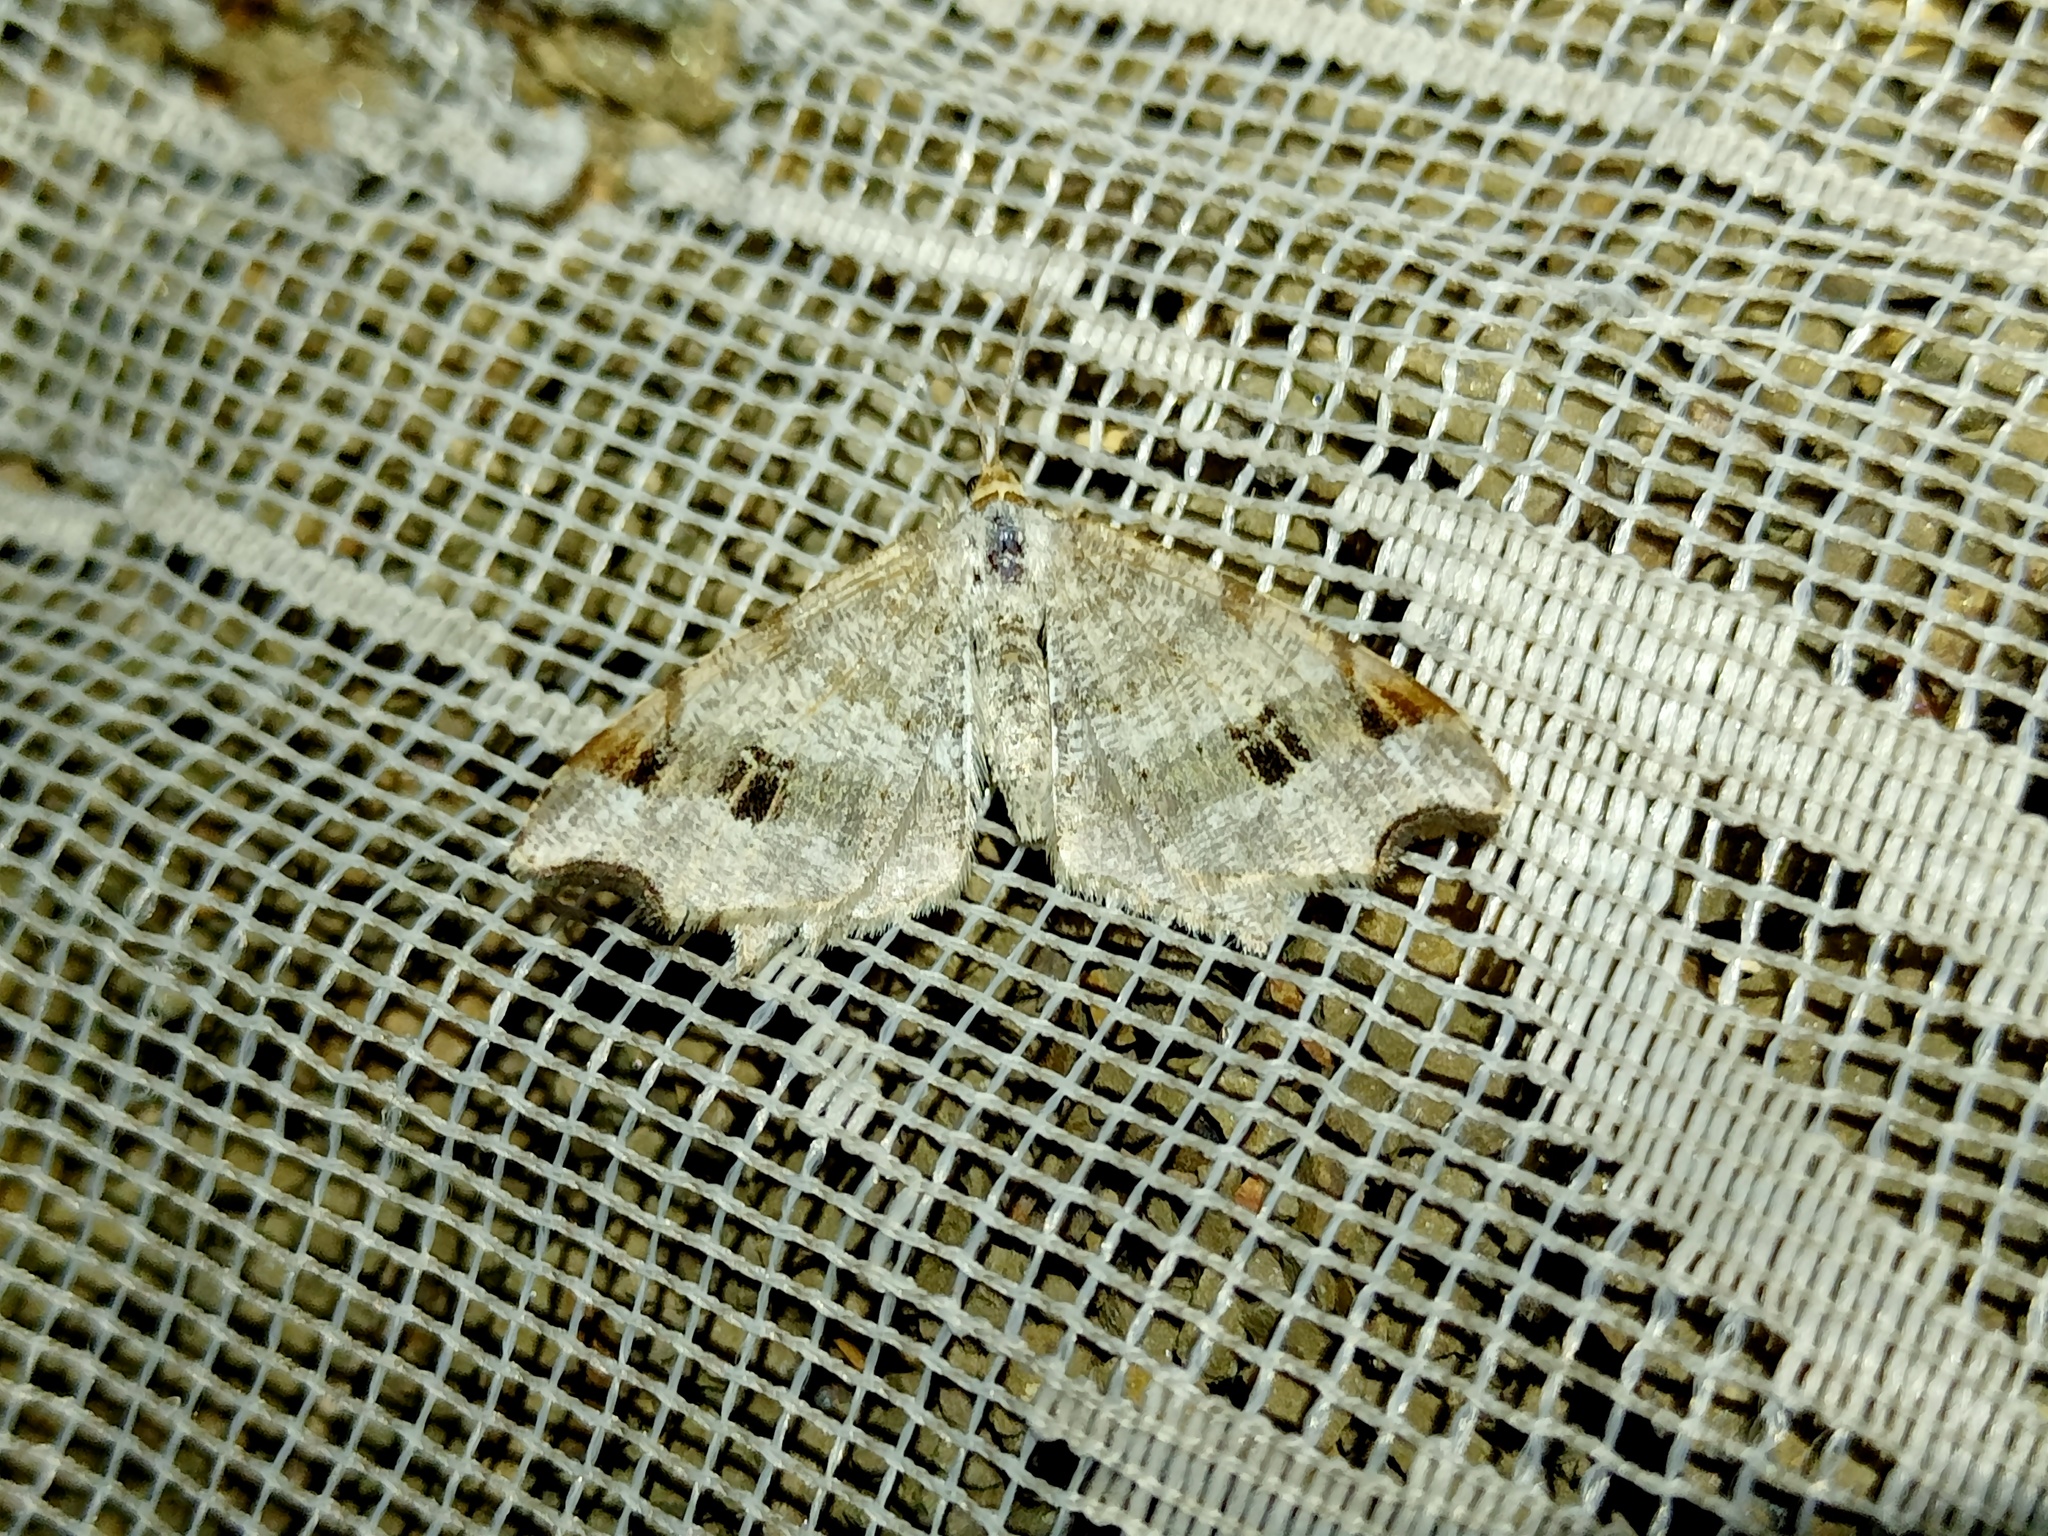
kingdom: Animalia
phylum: Arthropoda
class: Insecta
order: Lepidoptera
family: Geometridae
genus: Macaria
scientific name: Macaria alternata
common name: Sharp-angled peacock
